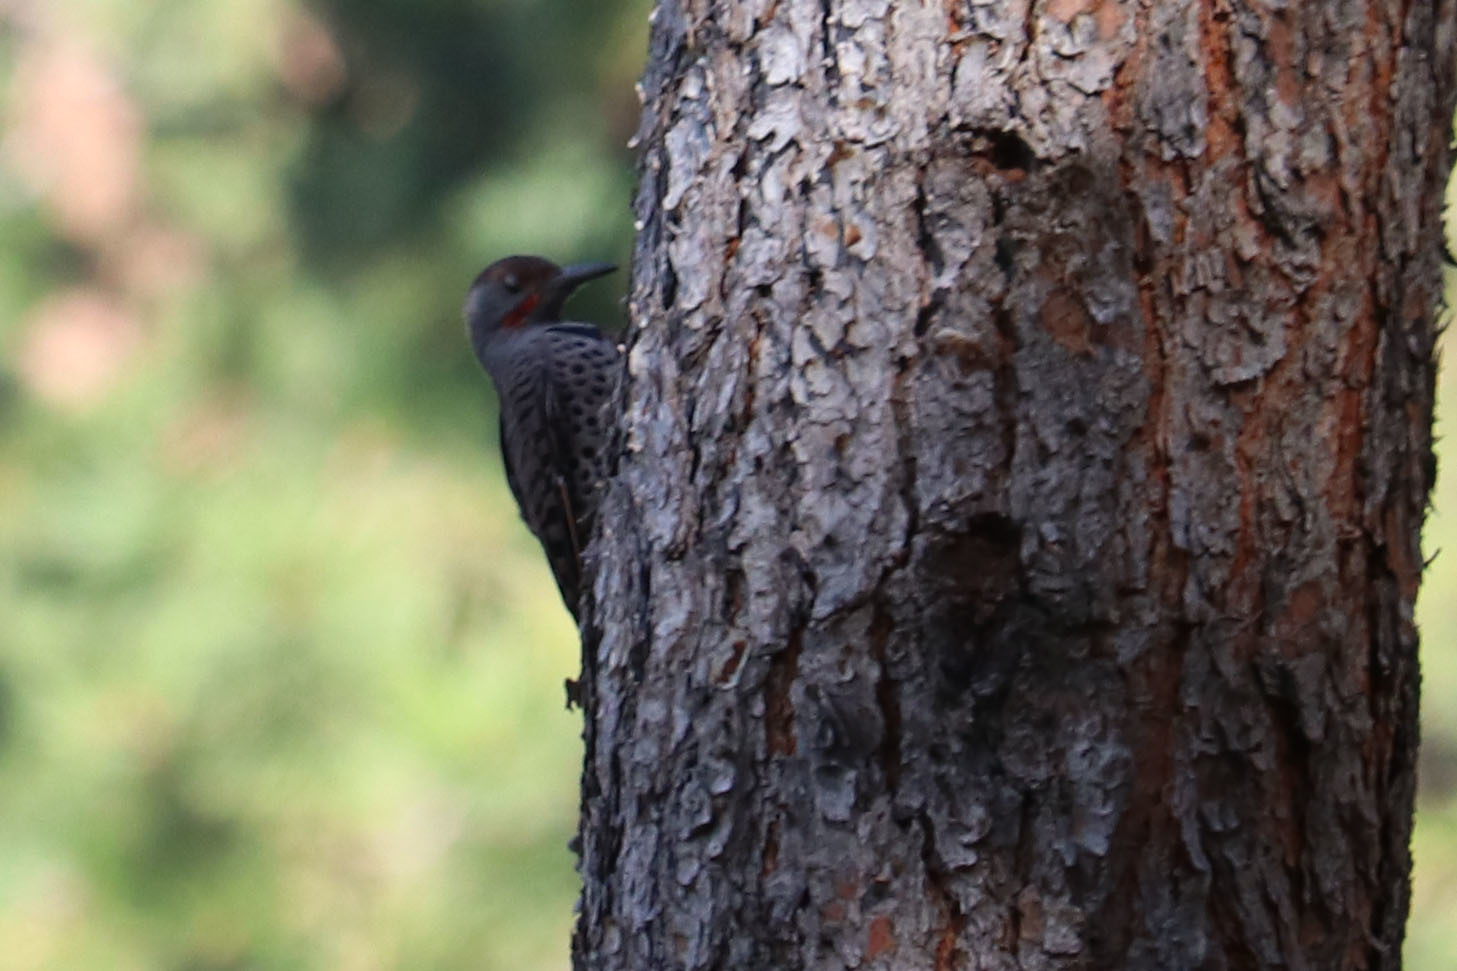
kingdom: Animalia
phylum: Chordata
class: Aves
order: Piciformes
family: Picidae
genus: Colaptes
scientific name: Colaptes auratus
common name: Northern flicker
